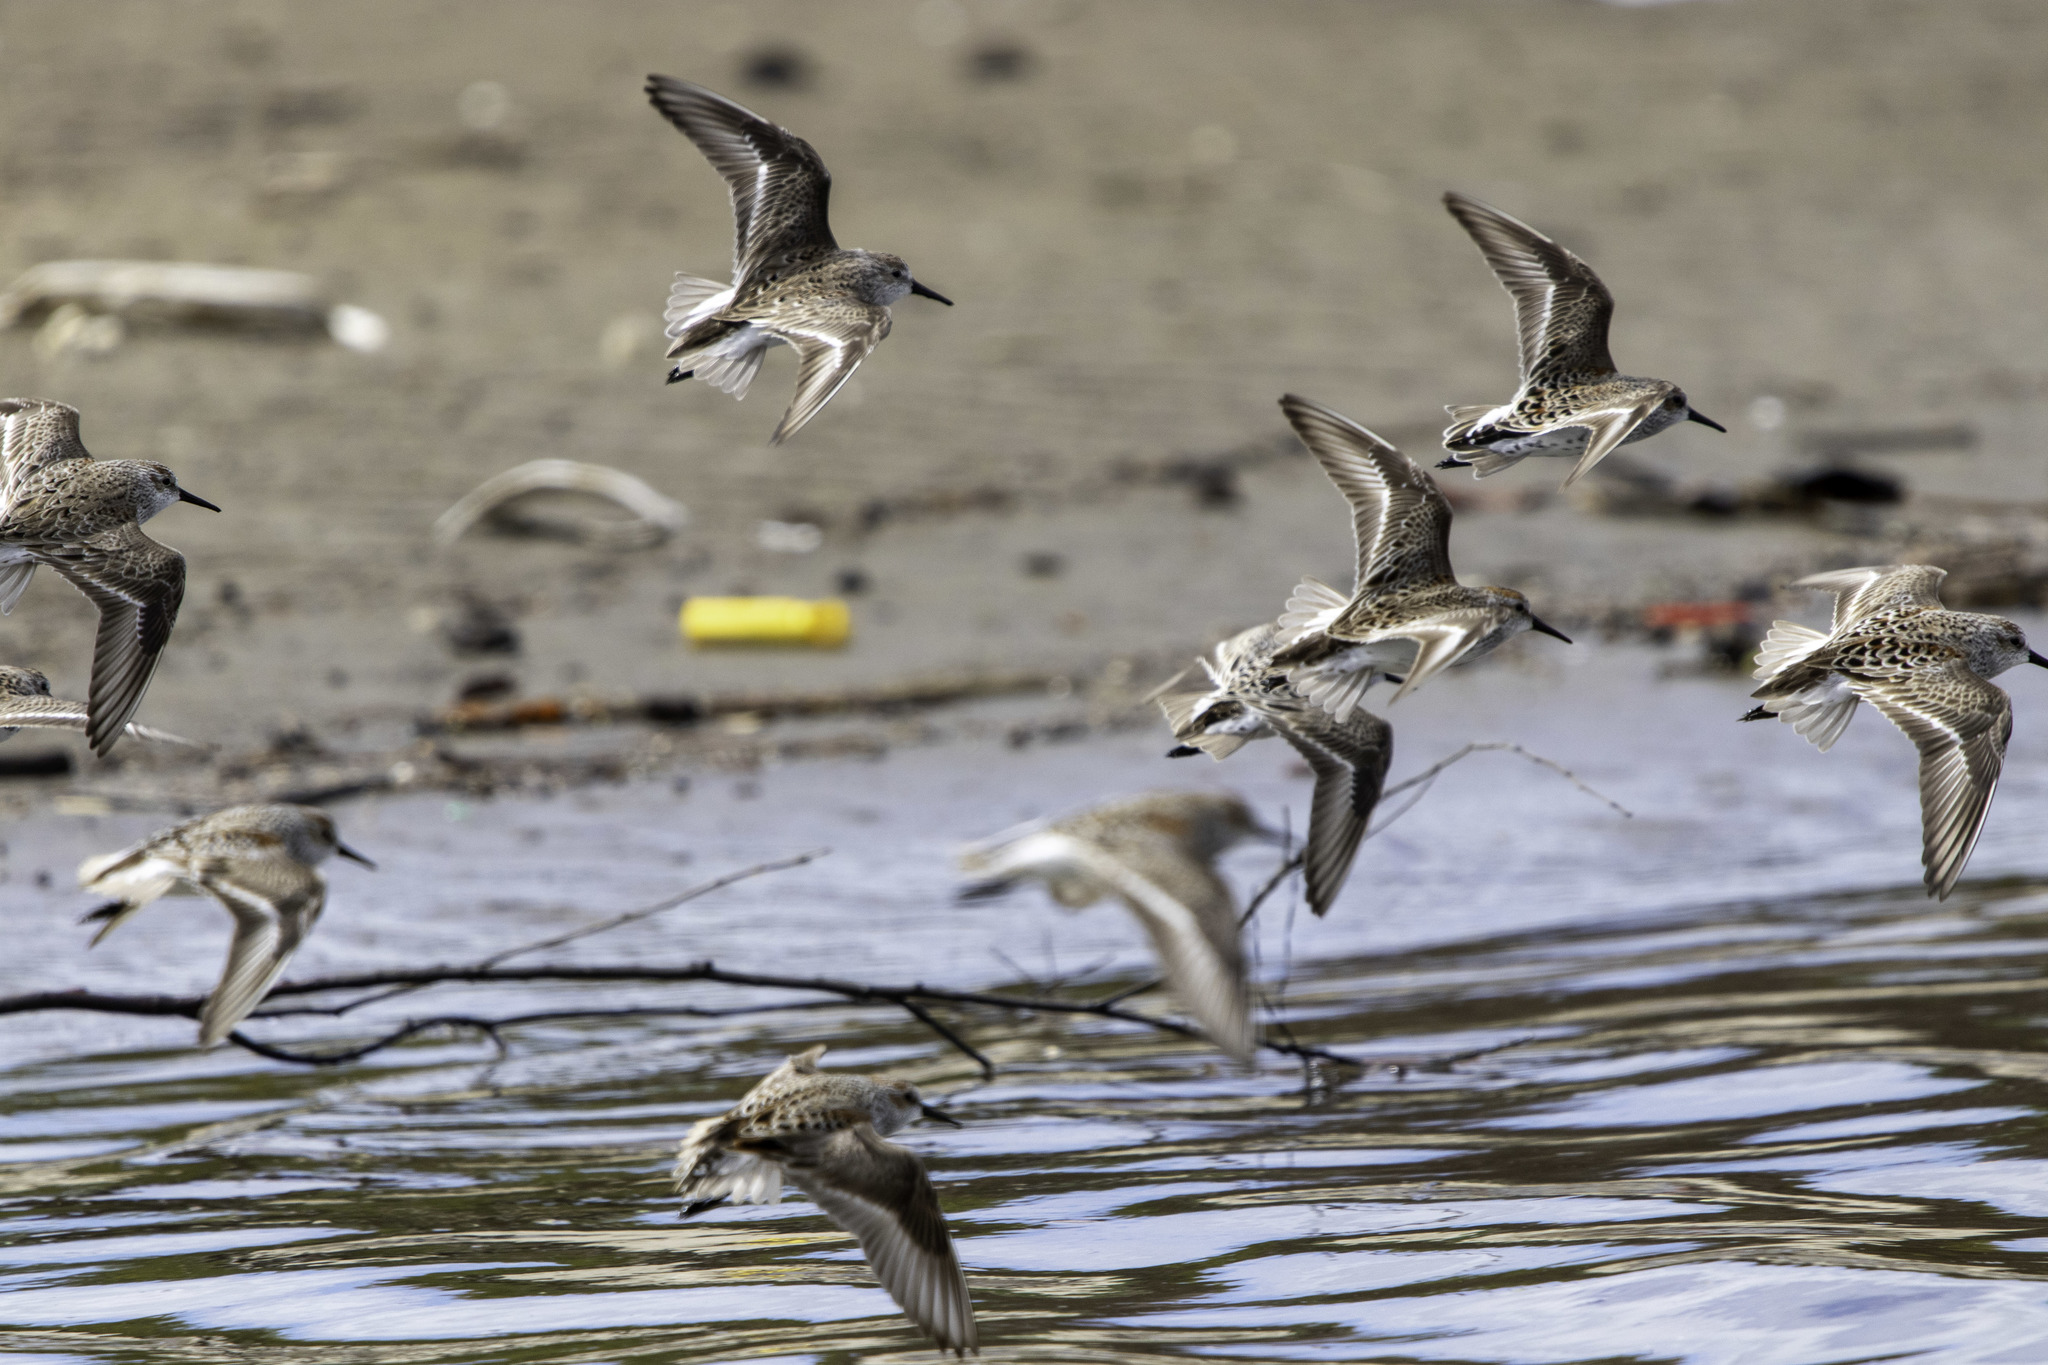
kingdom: Animalia
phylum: Chordata
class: Aves
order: Charadriiformes
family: Scolopacidae
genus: Calidris
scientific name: Calidris mauri
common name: Western sandpiper
